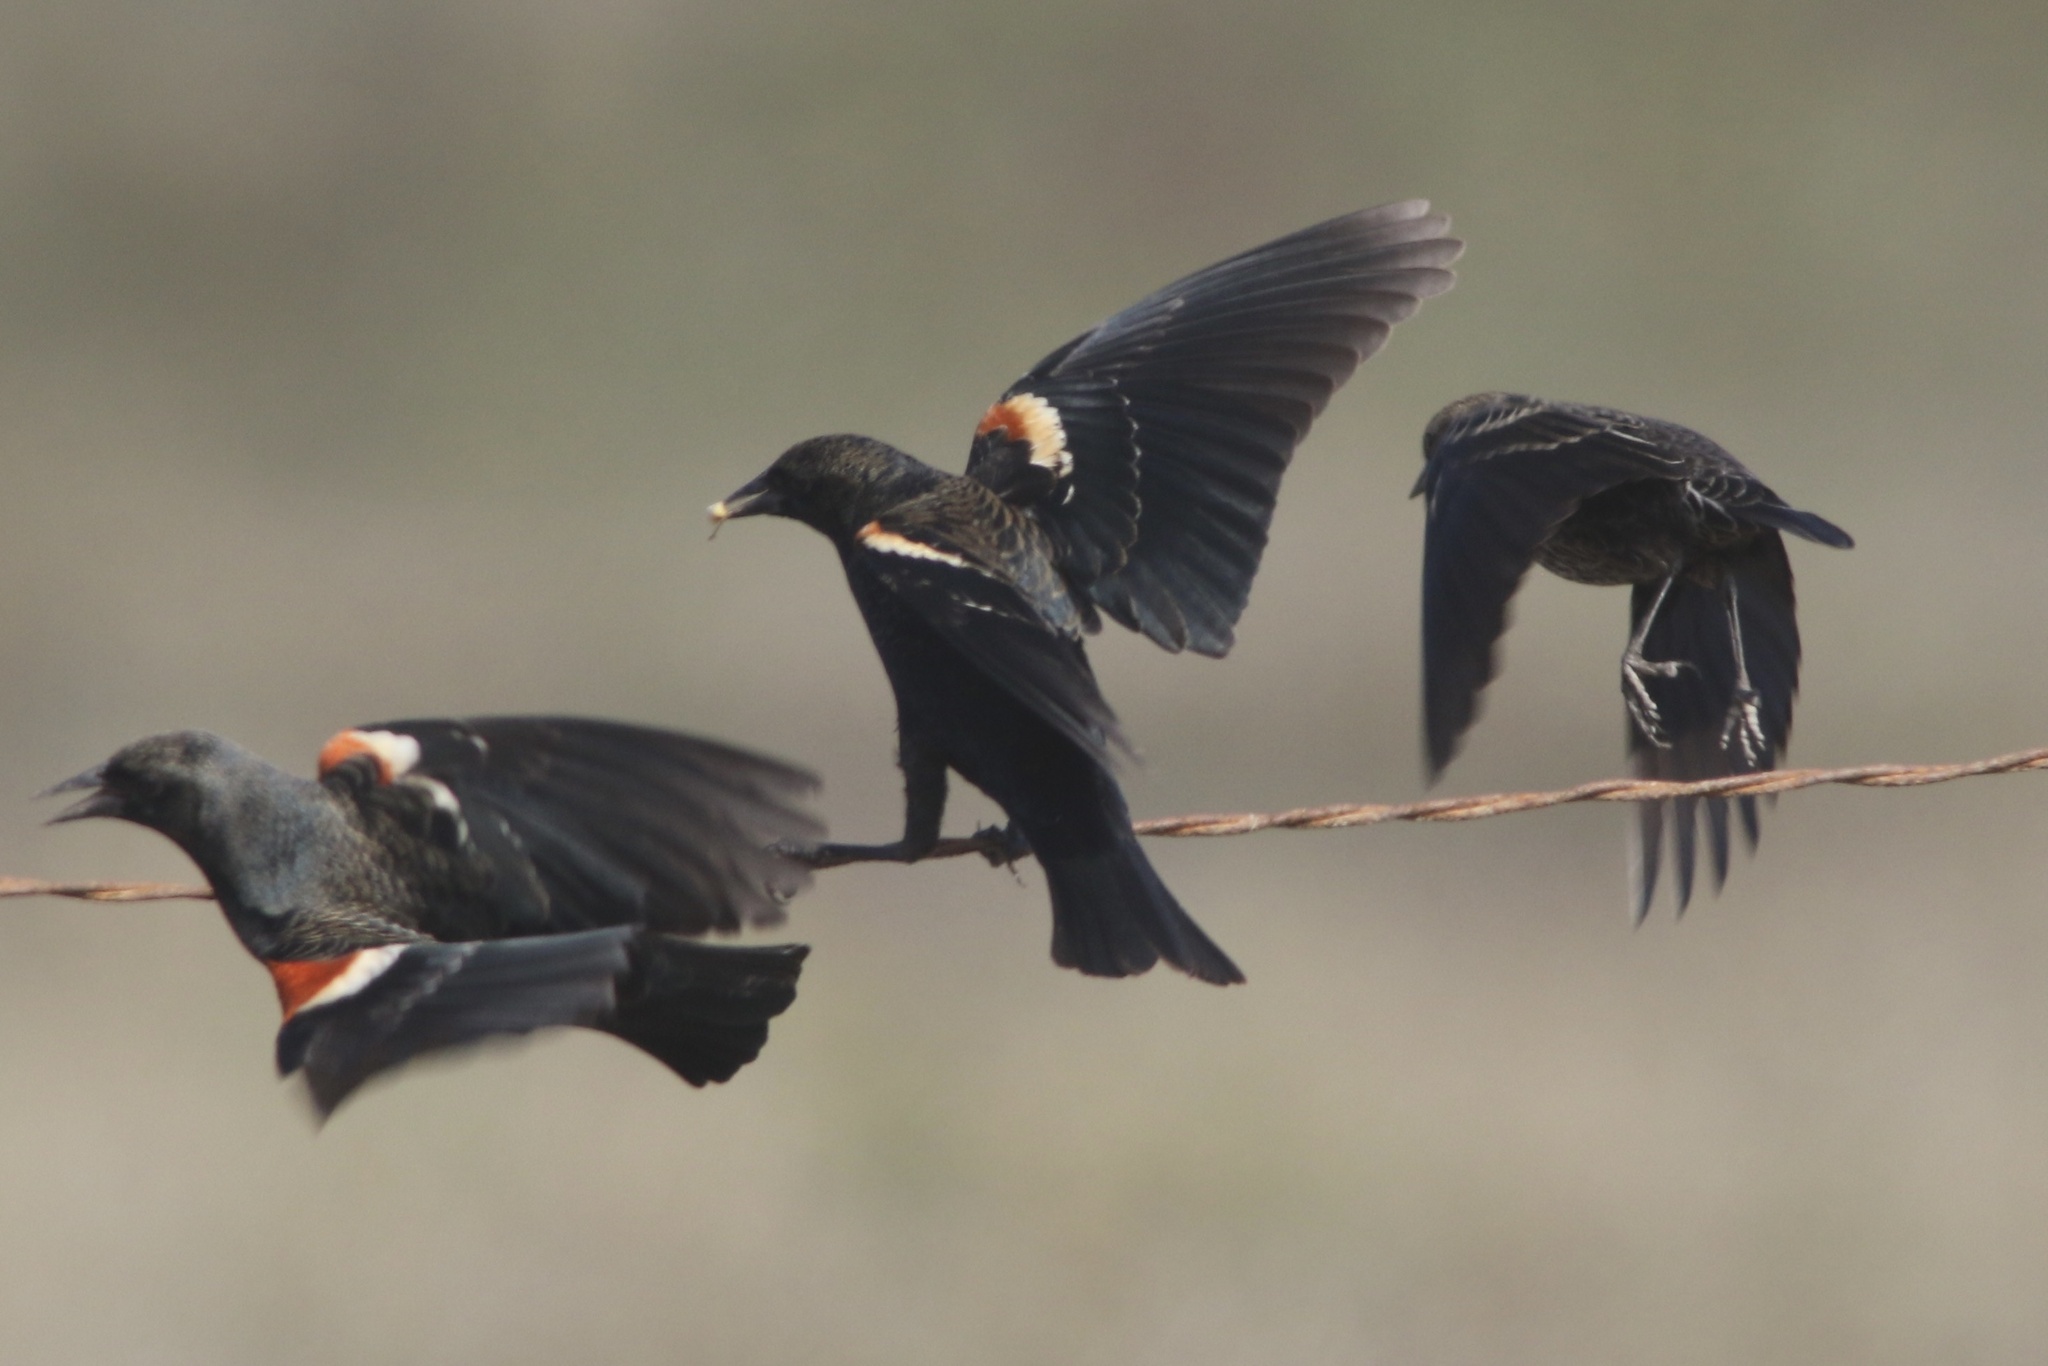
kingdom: Animalia
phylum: Chordata
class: Aves
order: Passeriformes
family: Icteridae
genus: Agelaius
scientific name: Agelaius tricolor
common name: Tricolored blackbird
